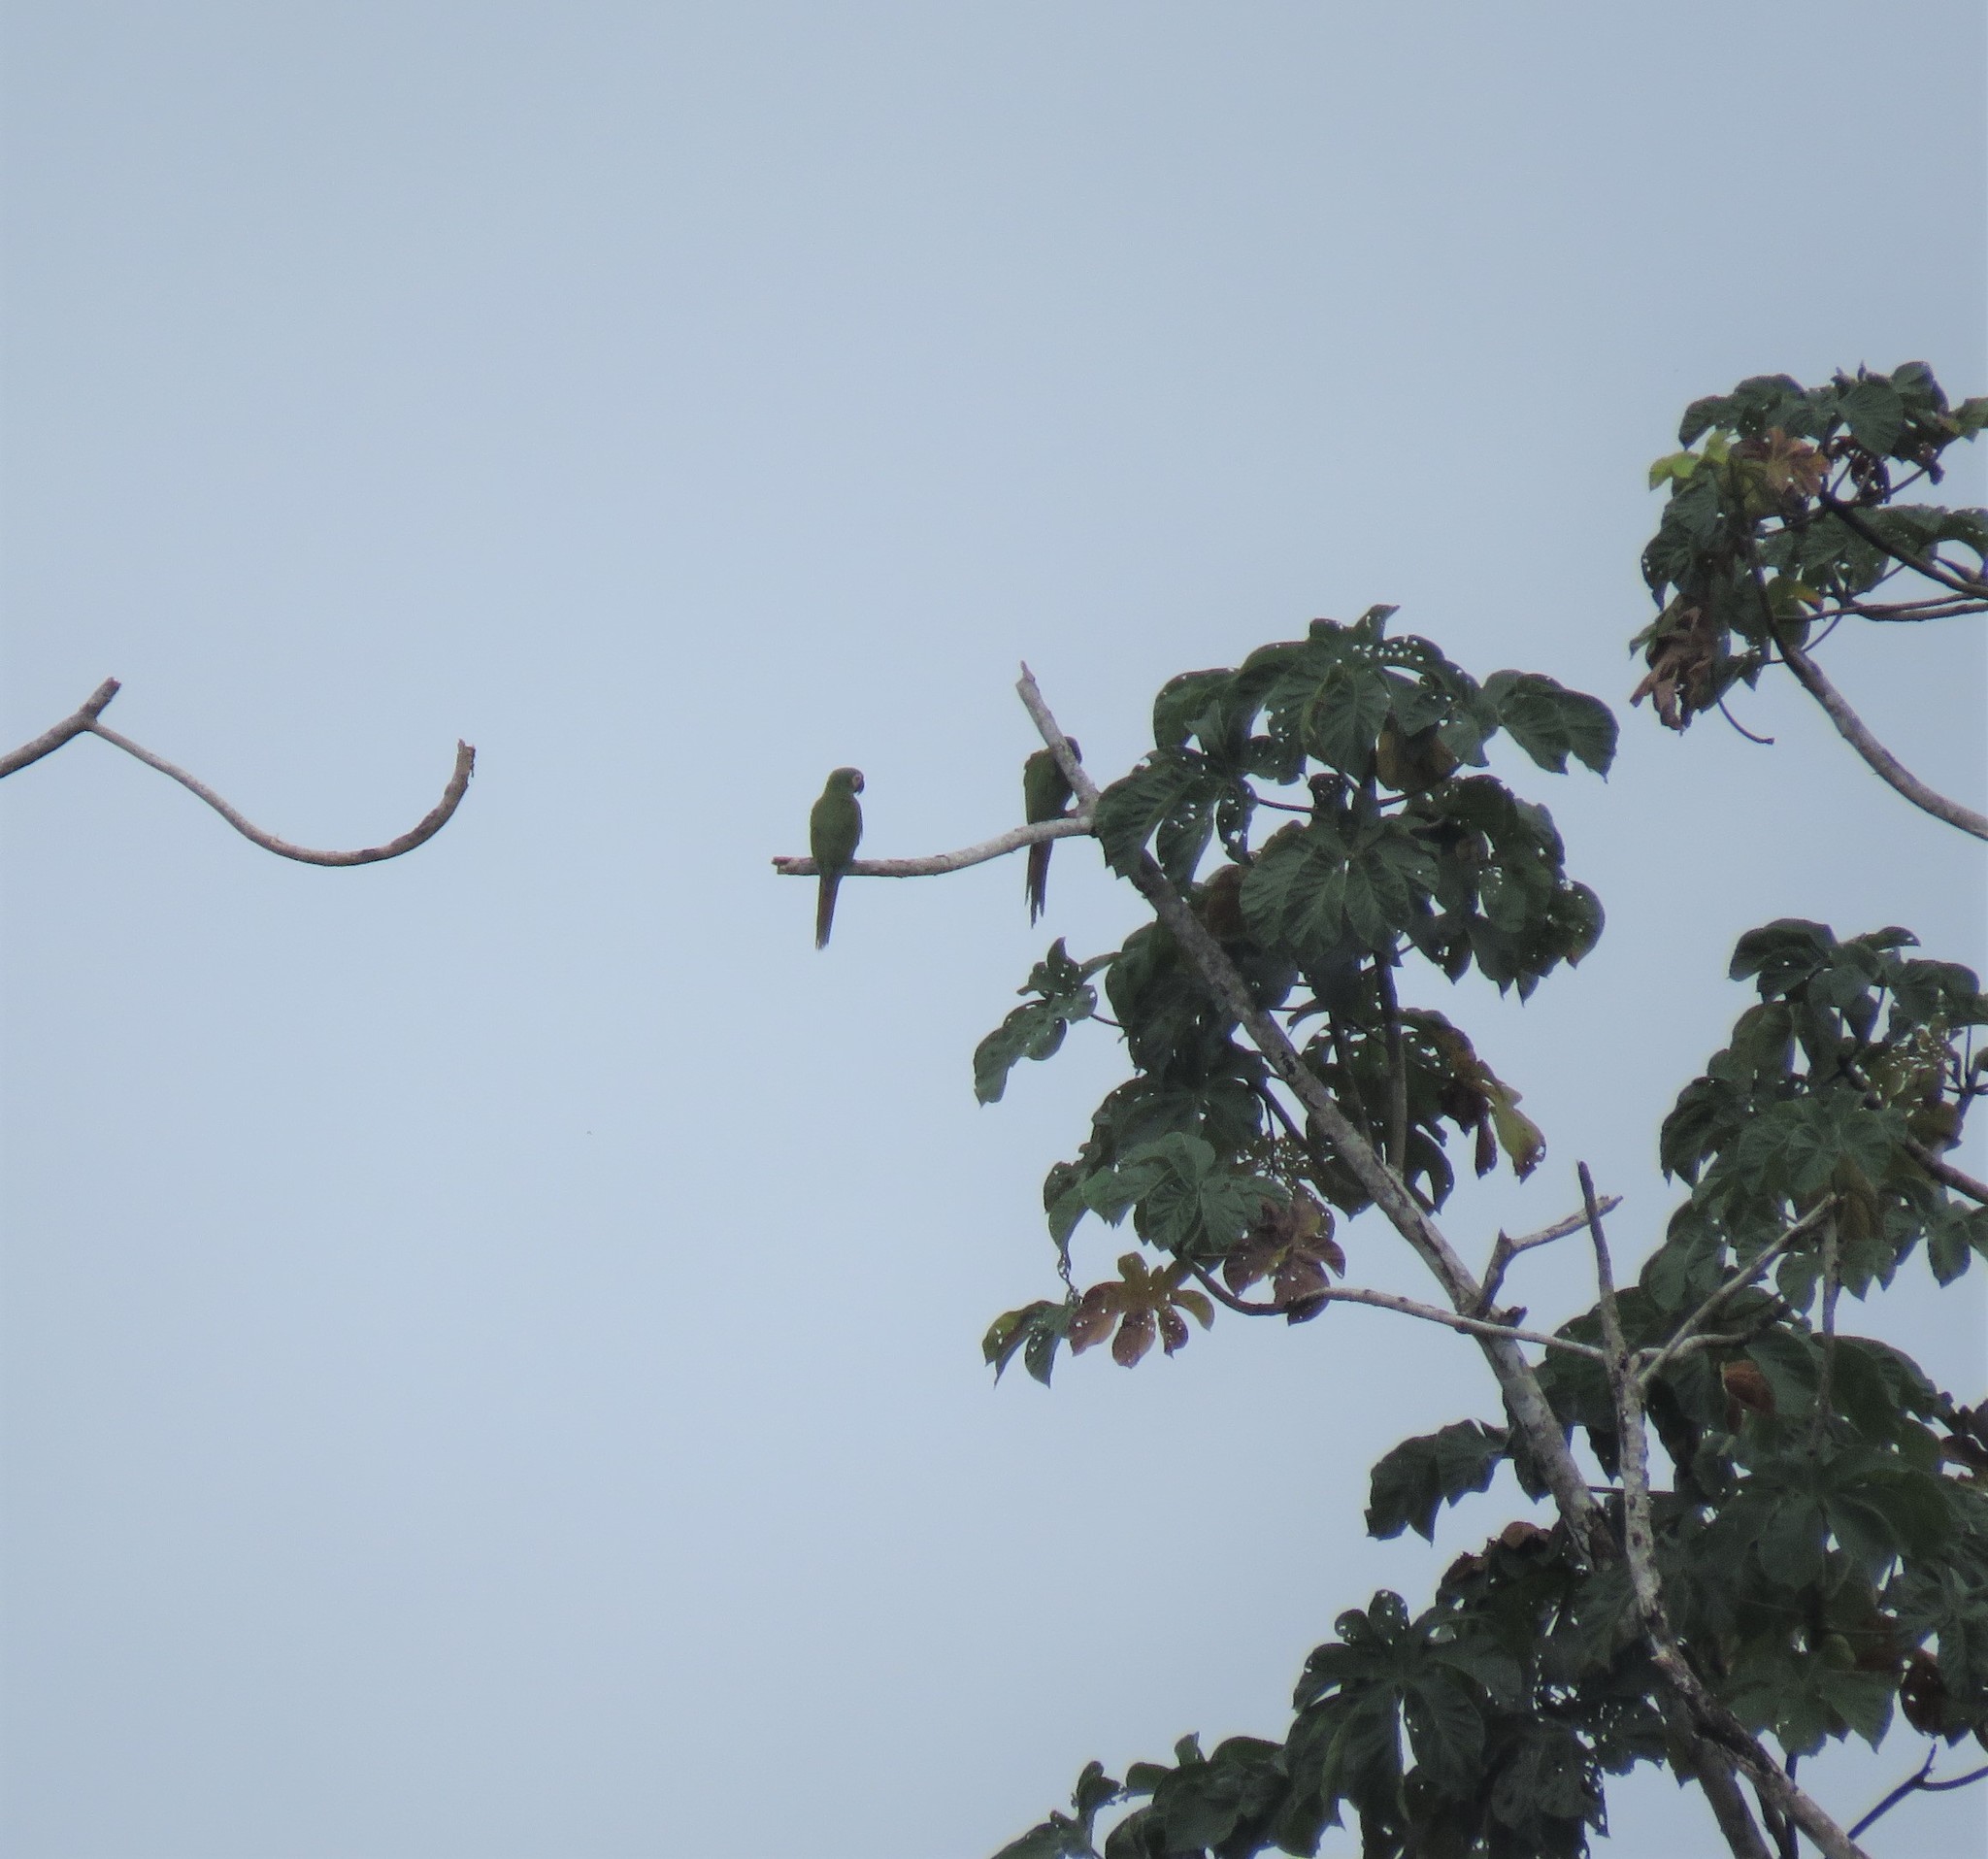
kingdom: Animalia
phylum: Chordata
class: Aves
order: Psittaciformes
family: Psittacidae
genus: Ara
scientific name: Ara severus
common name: Chestnut-fronted macaw
